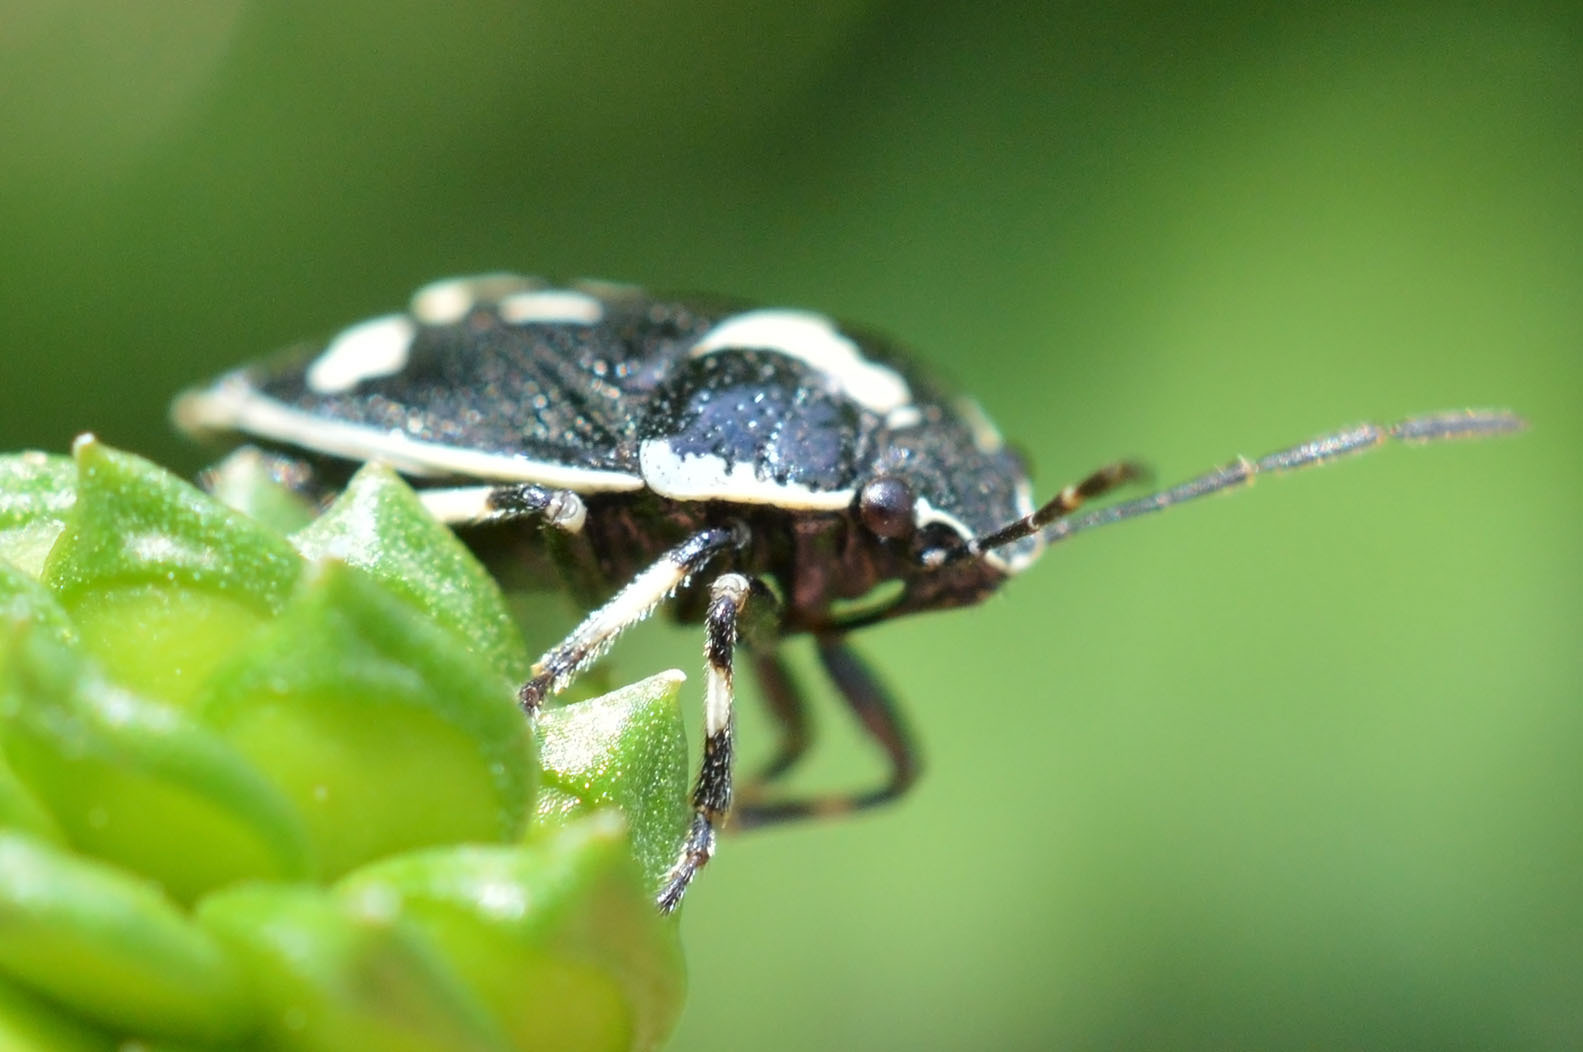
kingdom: Animalia
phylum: Arthropoda
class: Insecta
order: Hemiptera
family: Pentatomidae
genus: Eurydema
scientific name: Eurydema oleracea
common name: Cabbage bug
